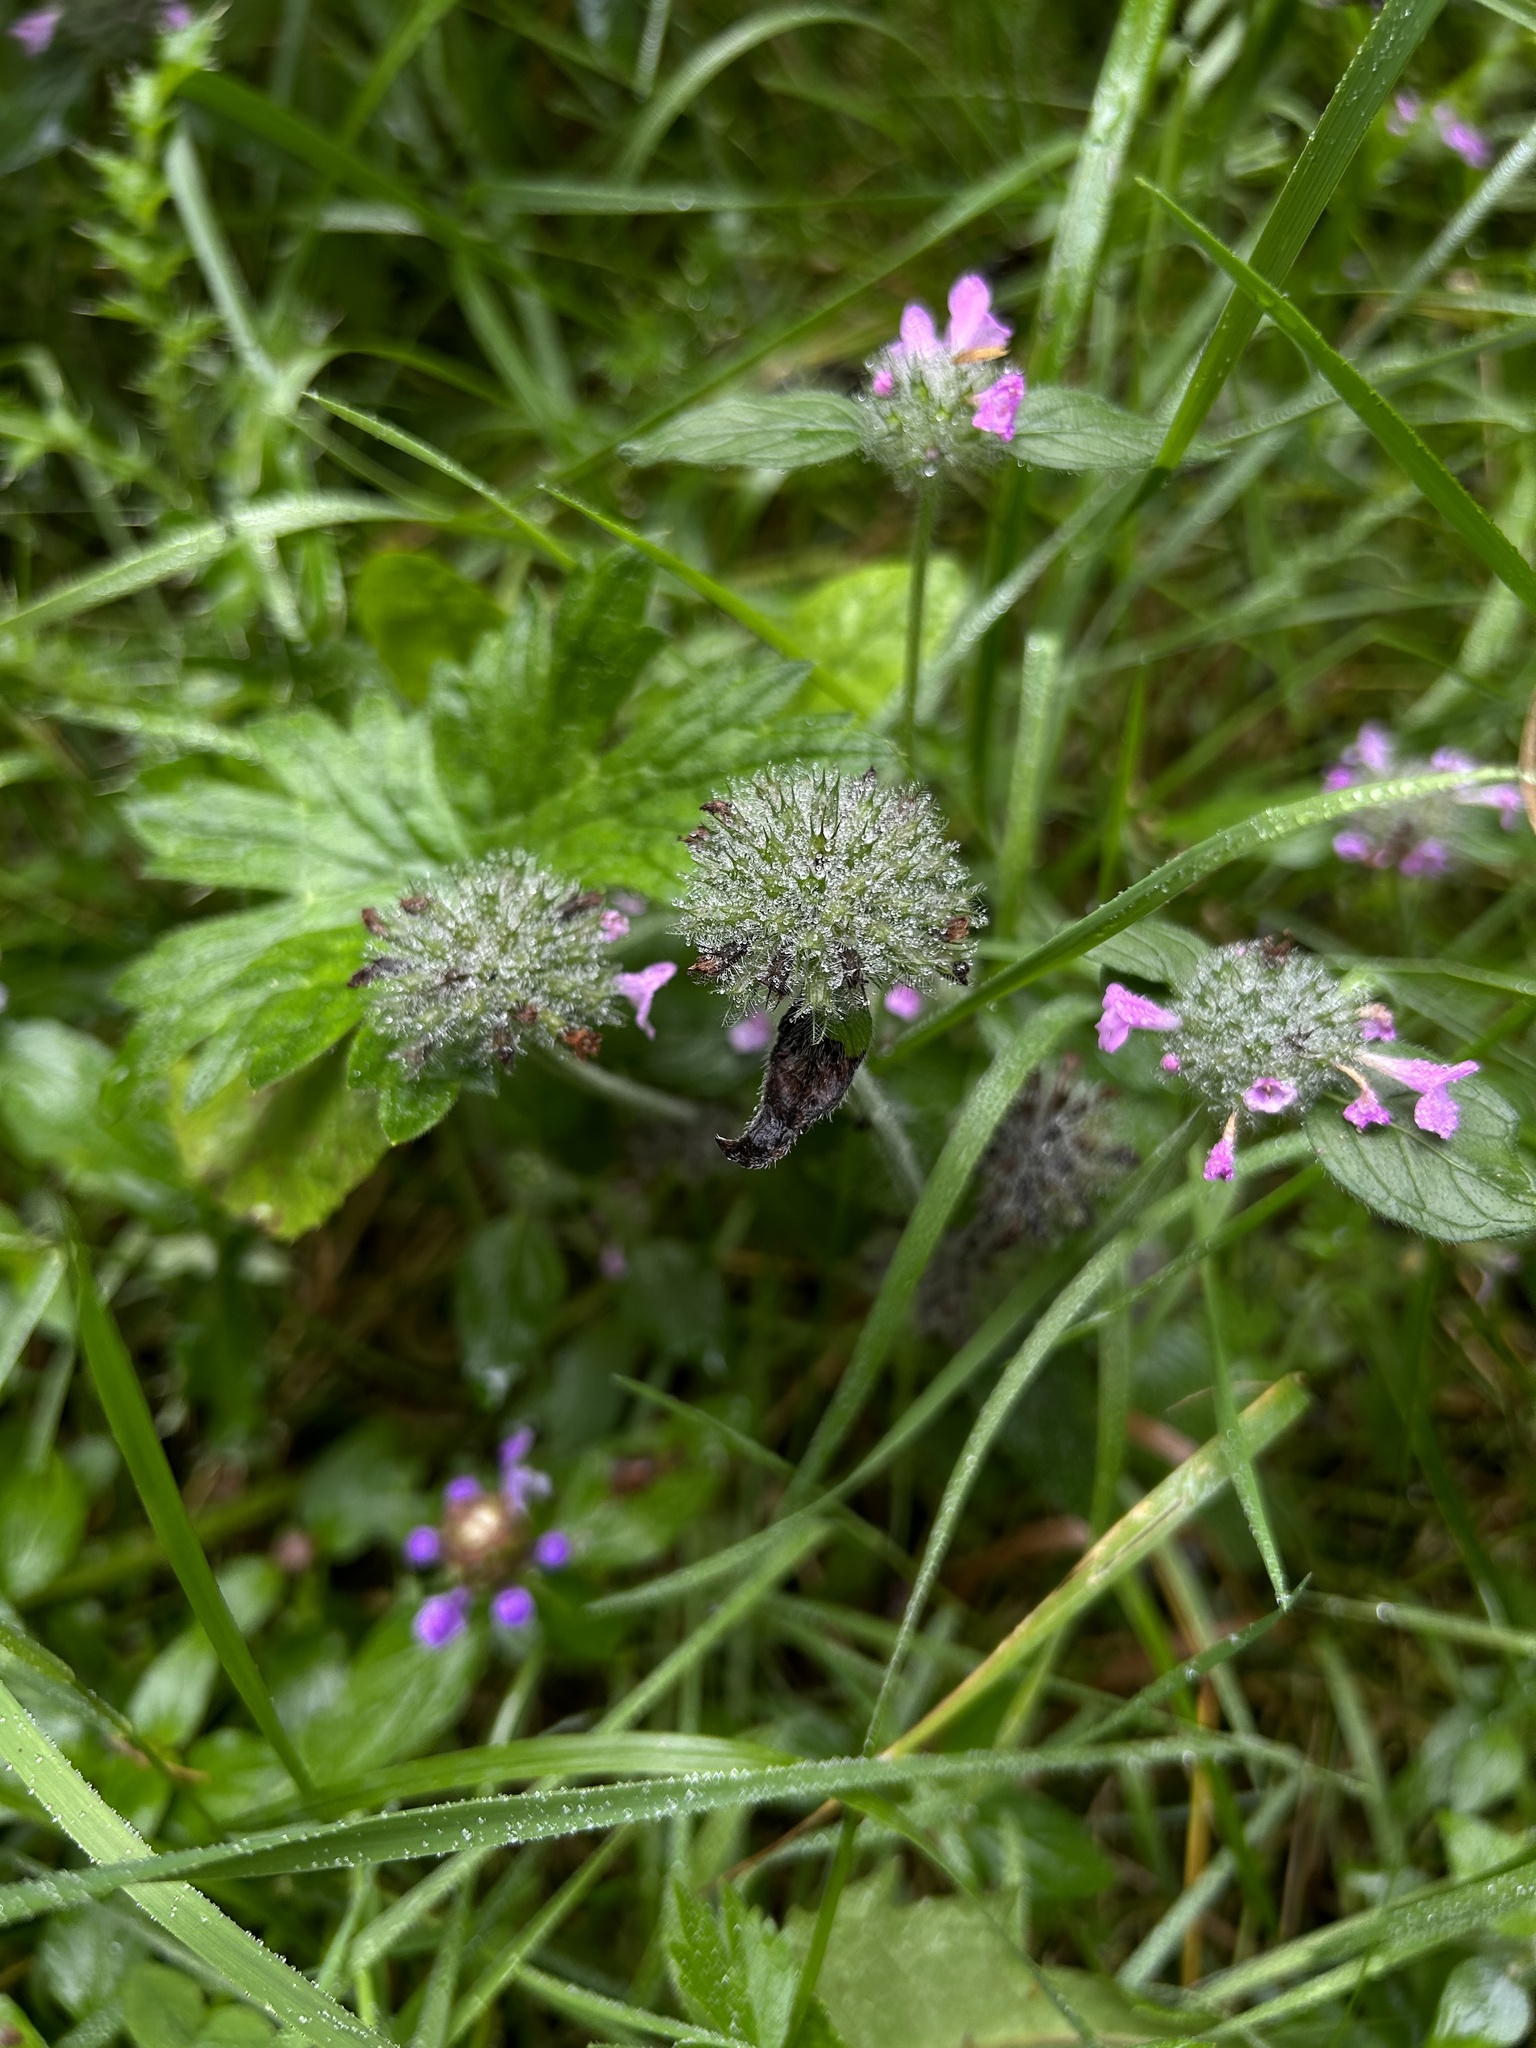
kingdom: Plantae
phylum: Tracheophyta
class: Magnoliopsida
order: Lamiales
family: Lamiaceae
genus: Clinopodium
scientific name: Clinopodium vulgare
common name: Wild basil
